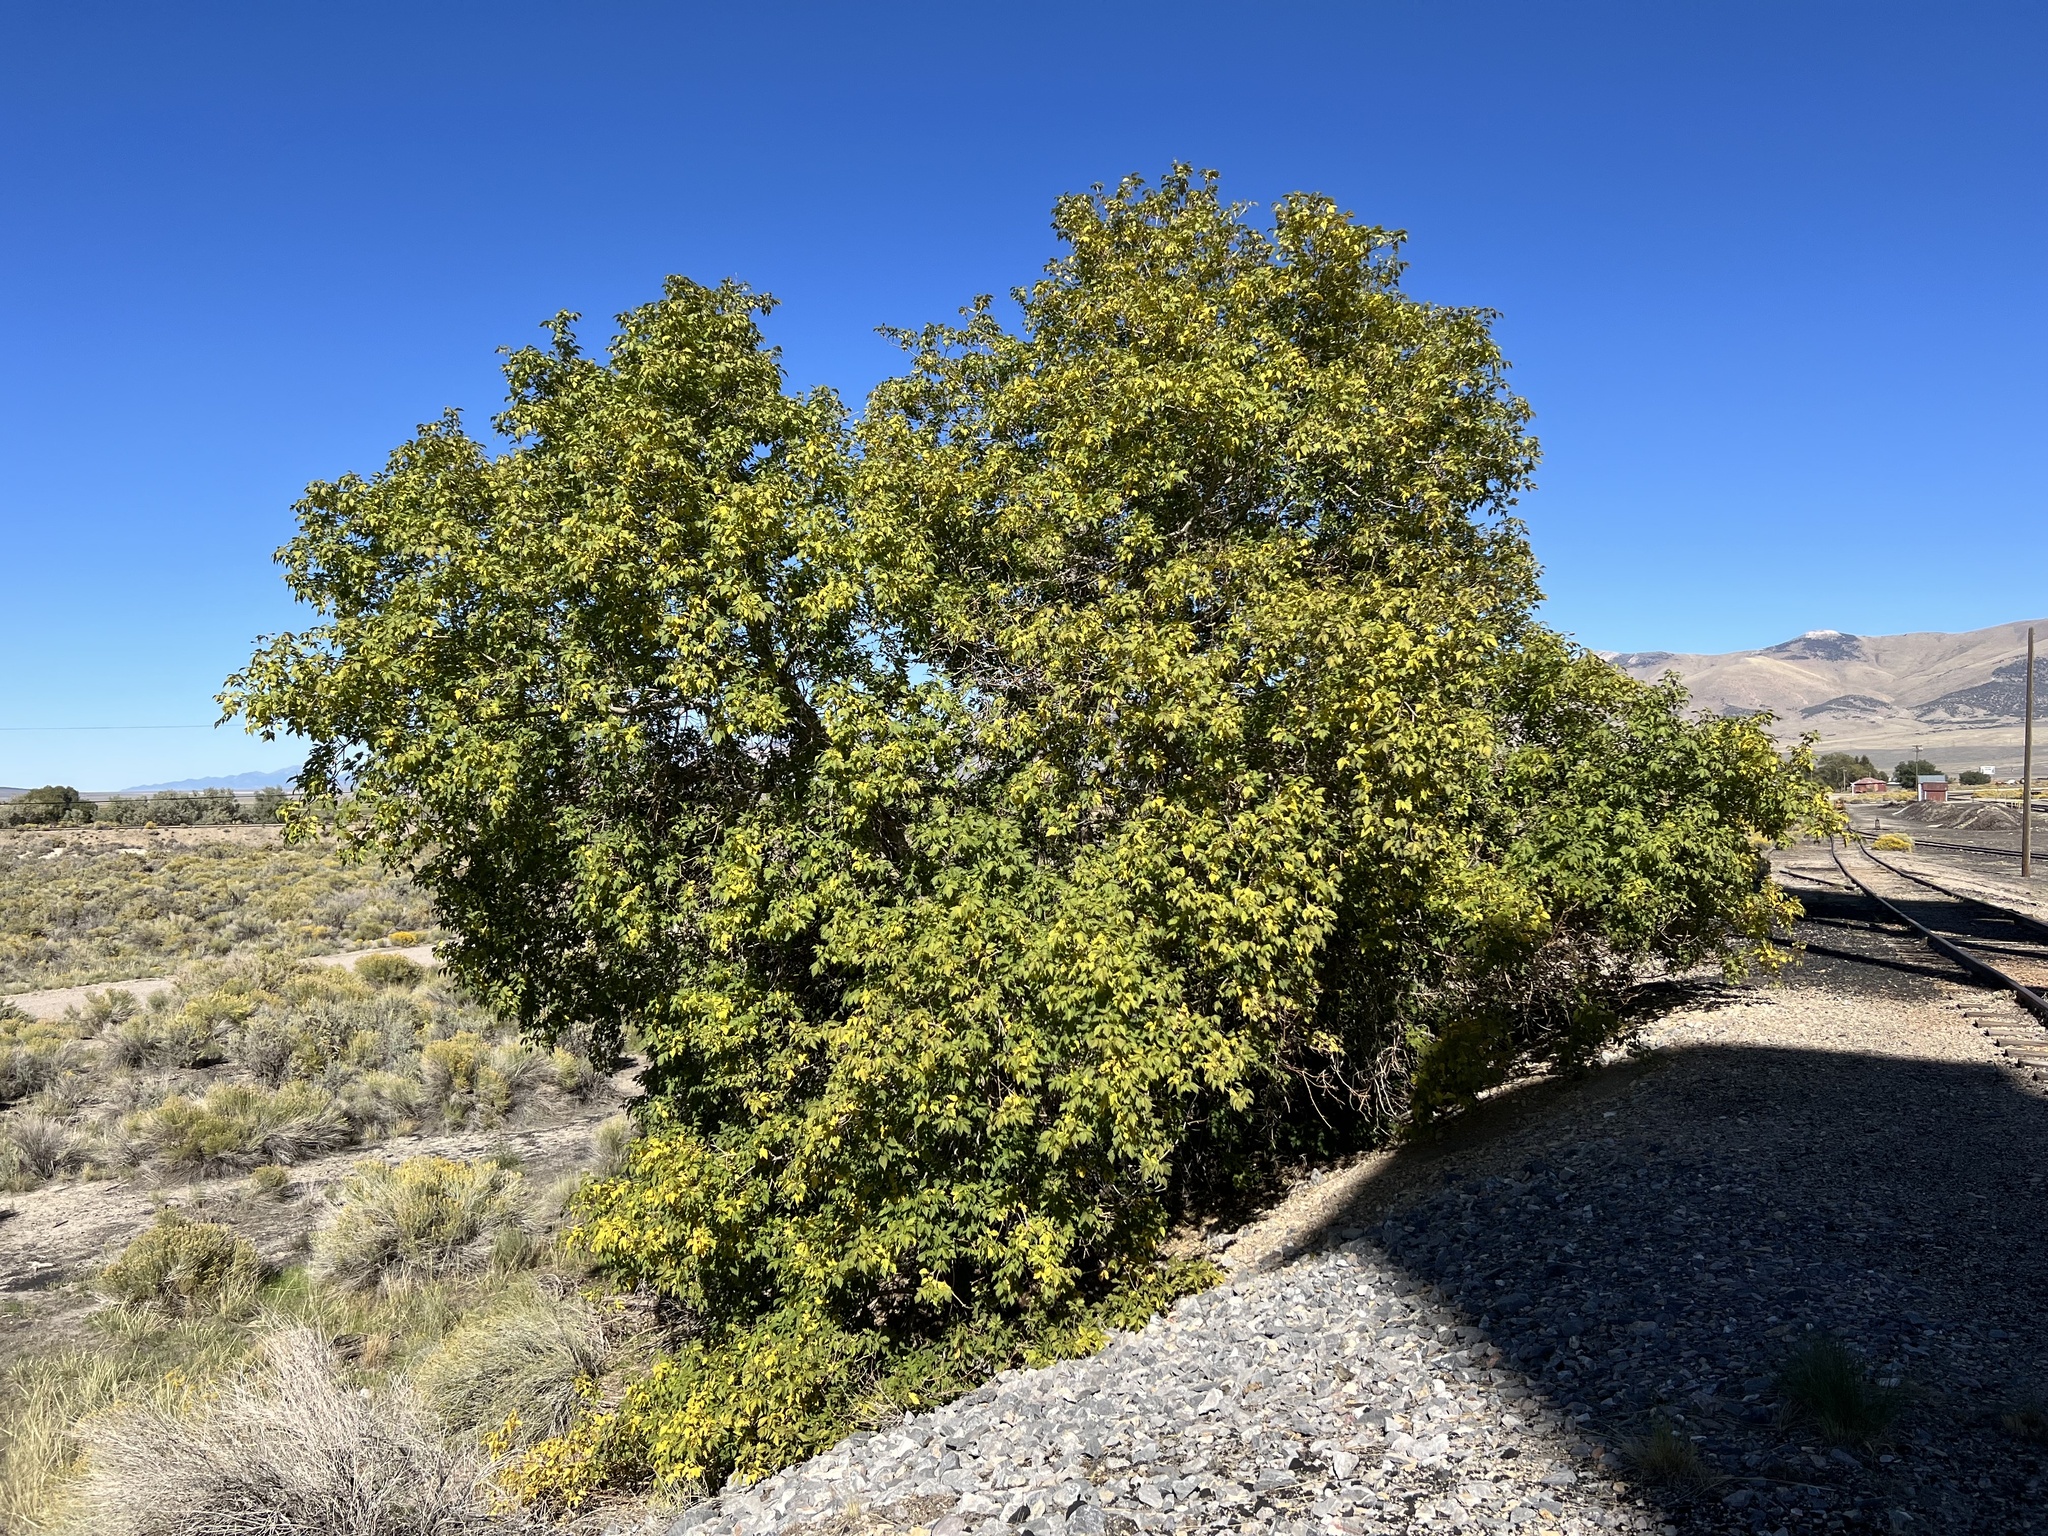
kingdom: Plantae
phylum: Tracheophyta
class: Magnoliopsida
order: Sapindales
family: Sapindaceae
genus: Acer
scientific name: Acer negundo
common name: Ashleaf maple
